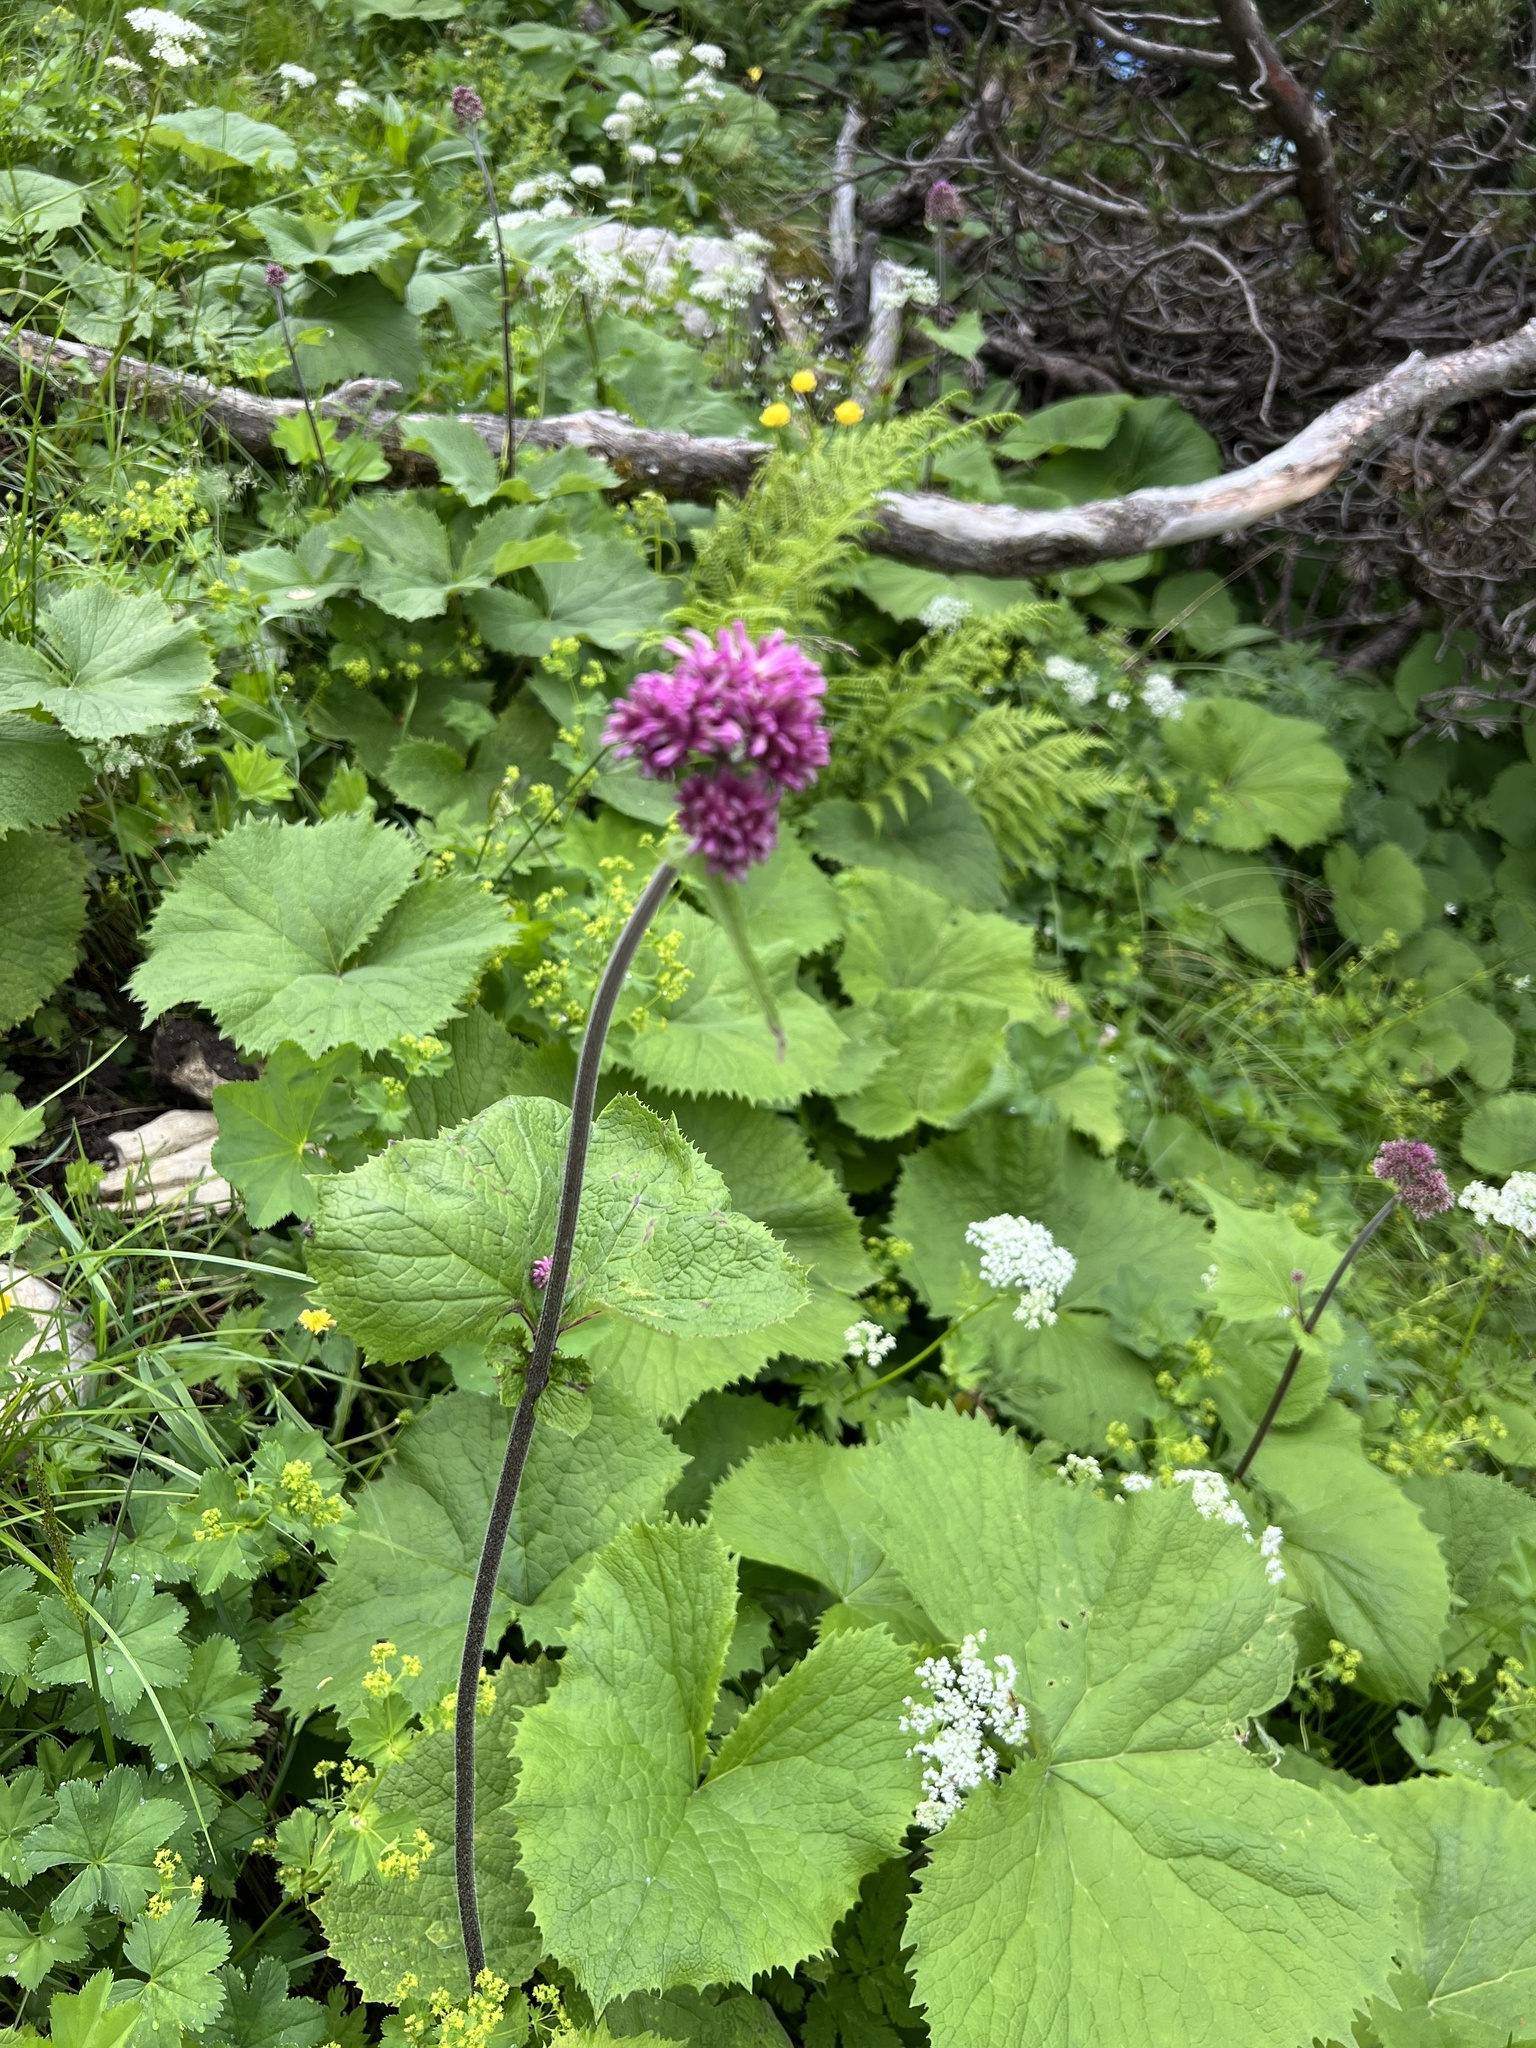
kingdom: Plantae
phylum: Tracheophyta
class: Magnoliopsida
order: Asterales
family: Asteraceae
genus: Adenostyles
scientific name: Adenostyles alliariae
